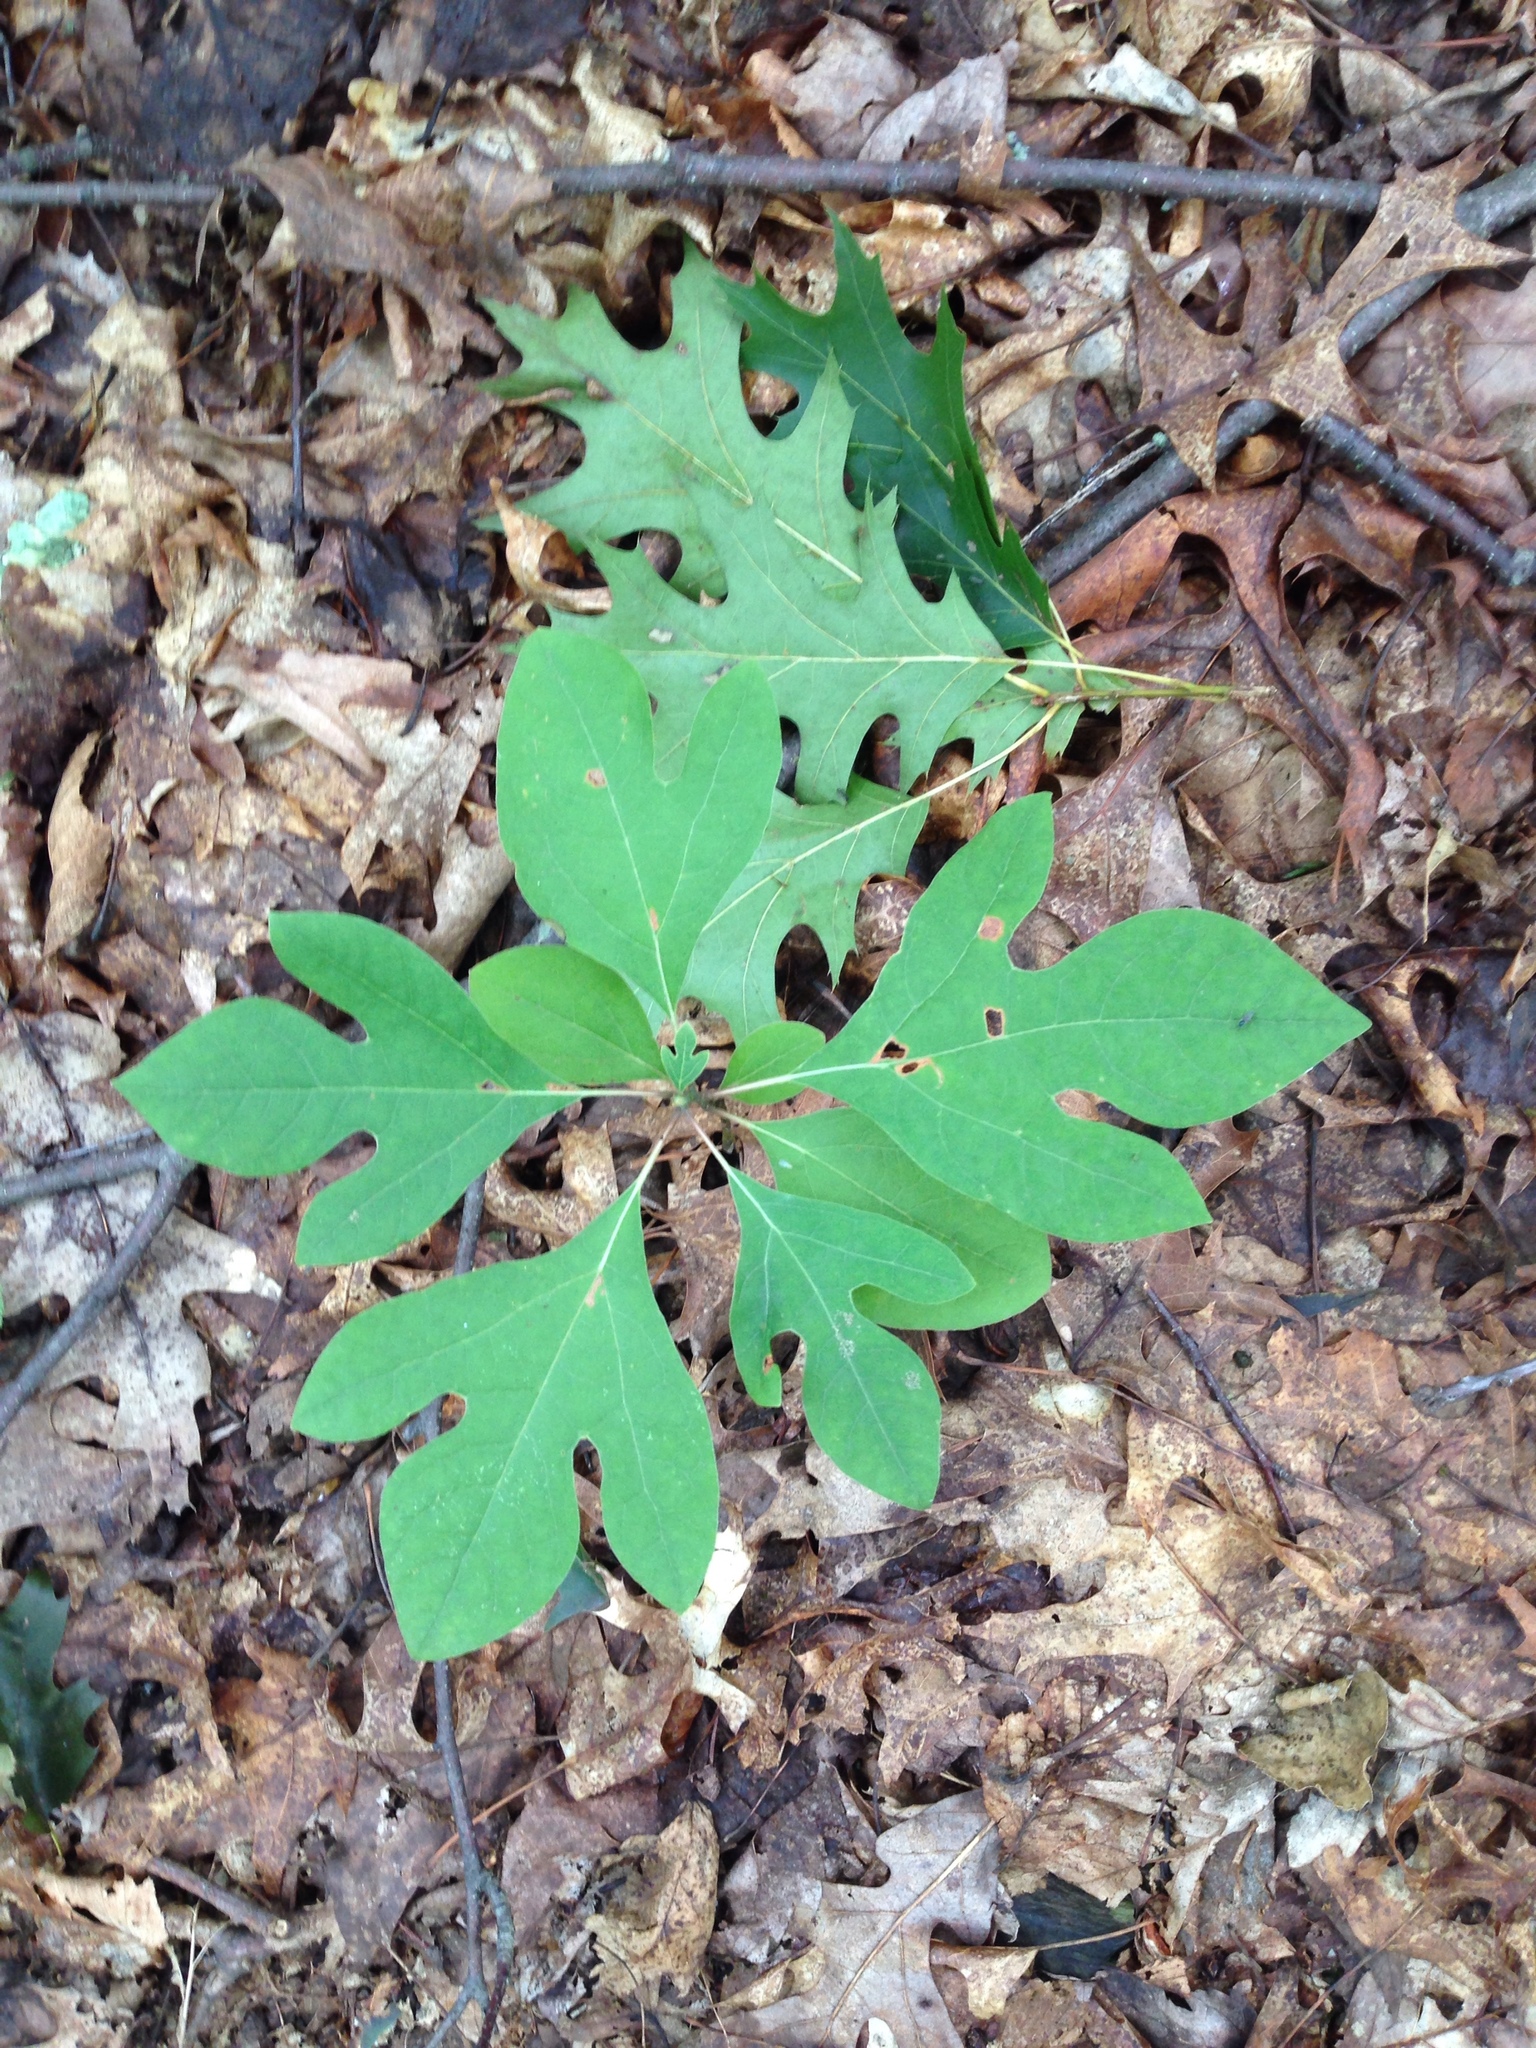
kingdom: Plantae
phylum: Tracheophyta
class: Magnoliopsida
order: Laurales
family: Lauraceae
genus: Sassafras
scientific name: Sassafras albidum
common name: Sassafras
